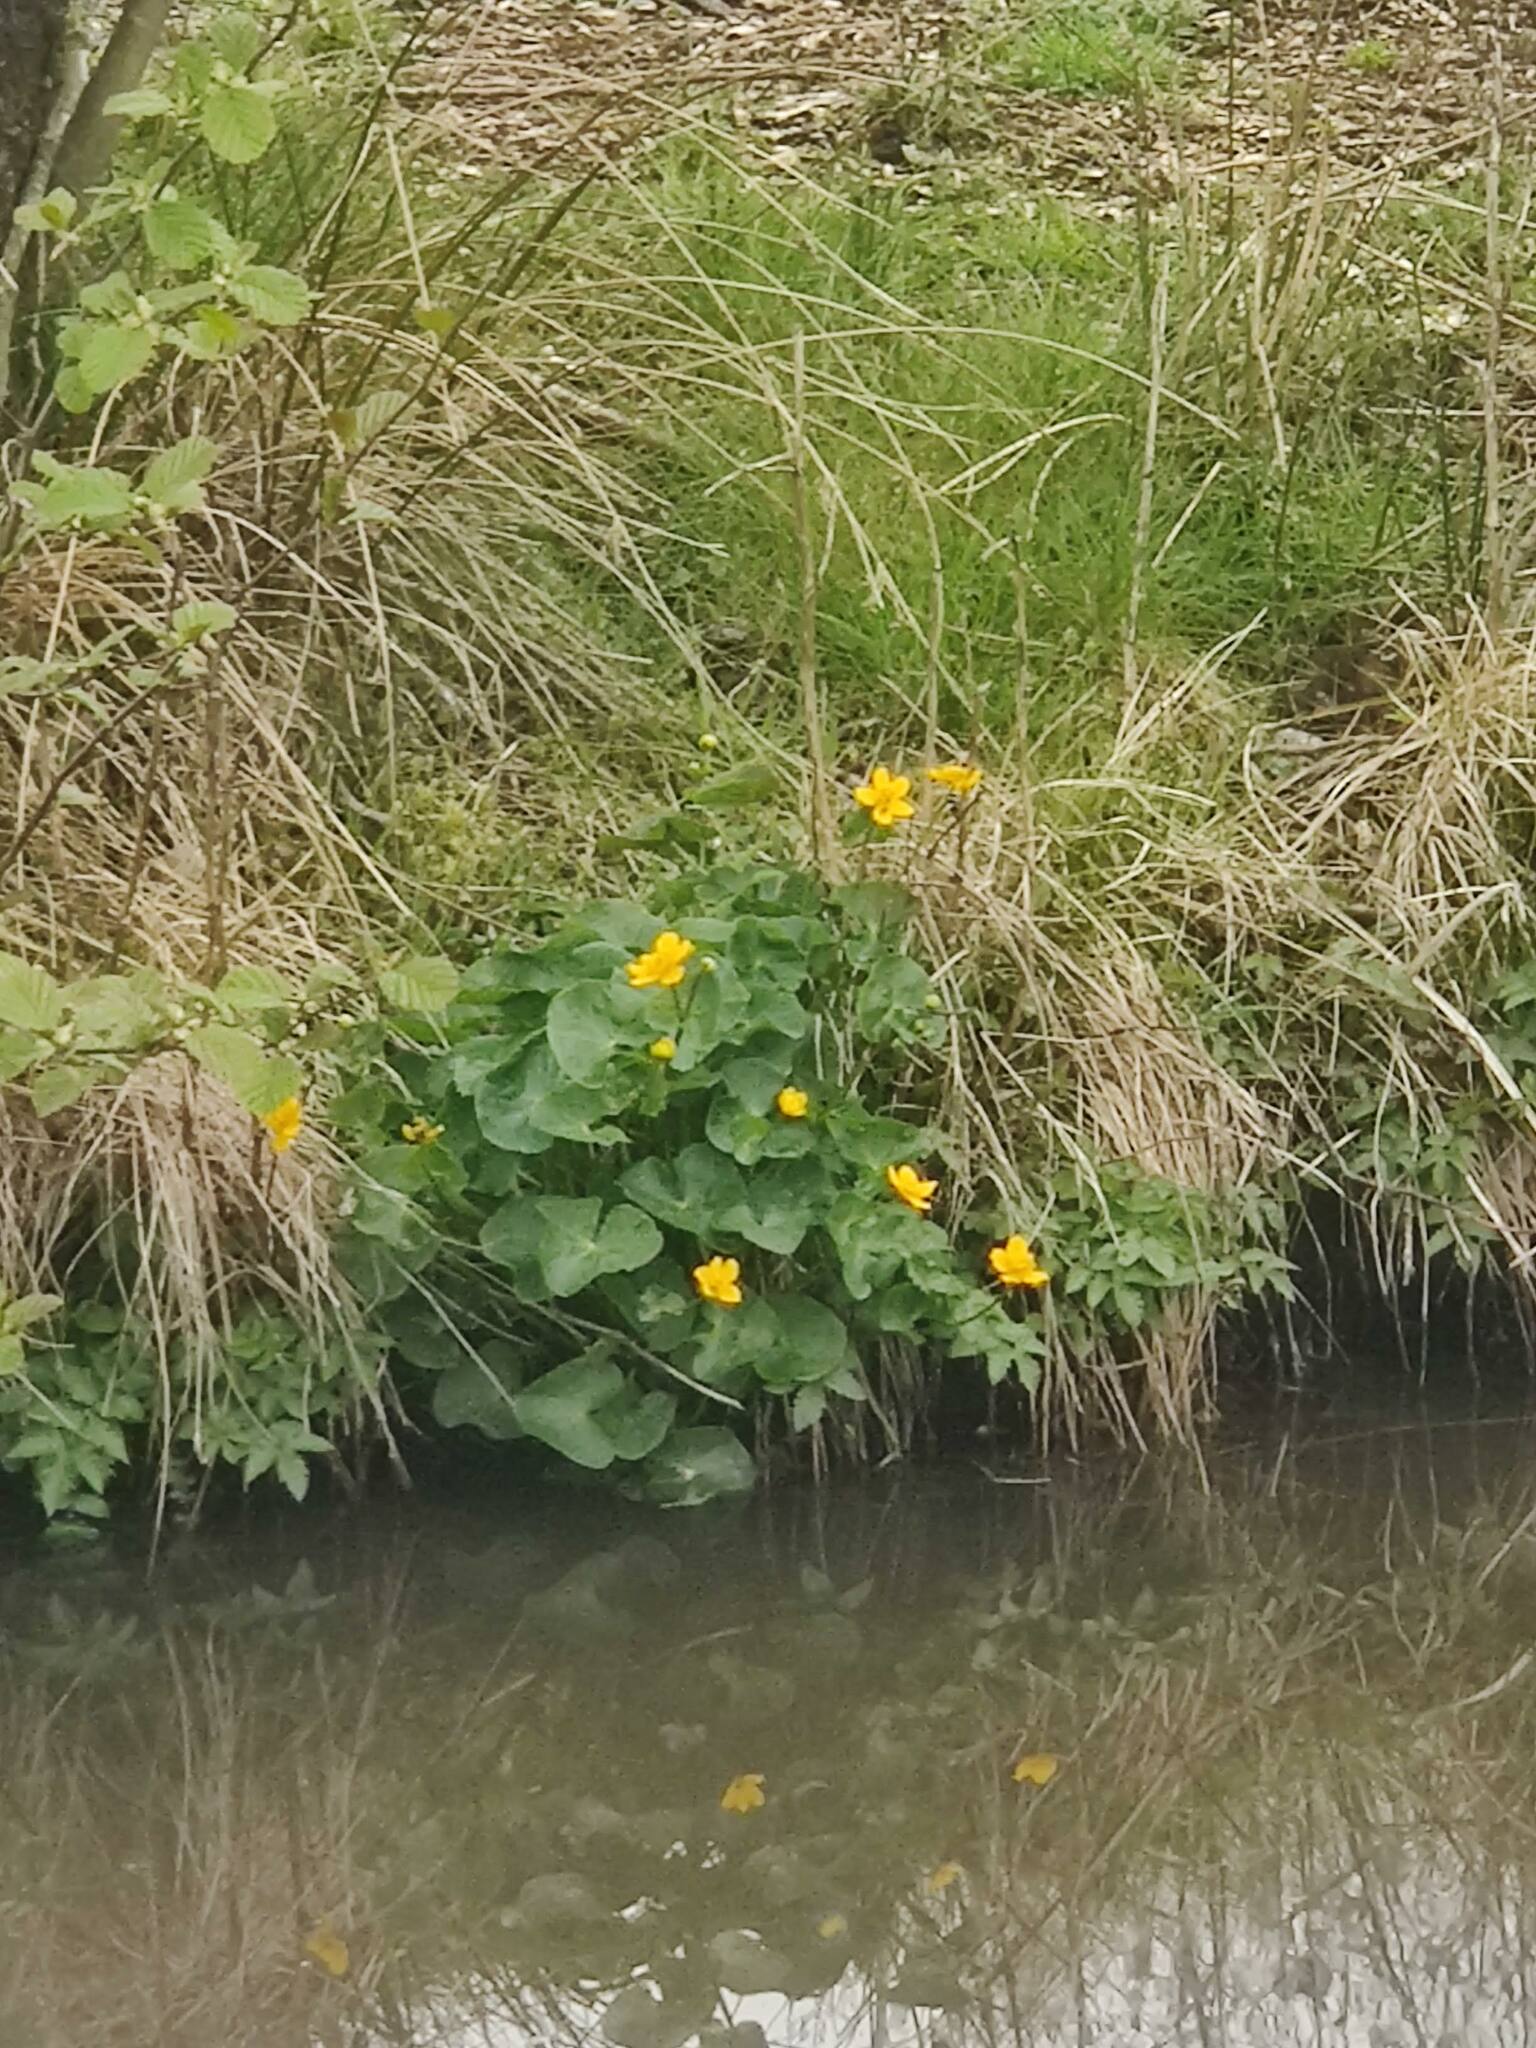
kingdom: Plantae
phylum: Tracheophyta
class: Magnoliopsida
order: Ranunculales
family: Ranunculaceae
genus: Caltha
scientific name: Caltha palustris
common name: Marsh marigold
